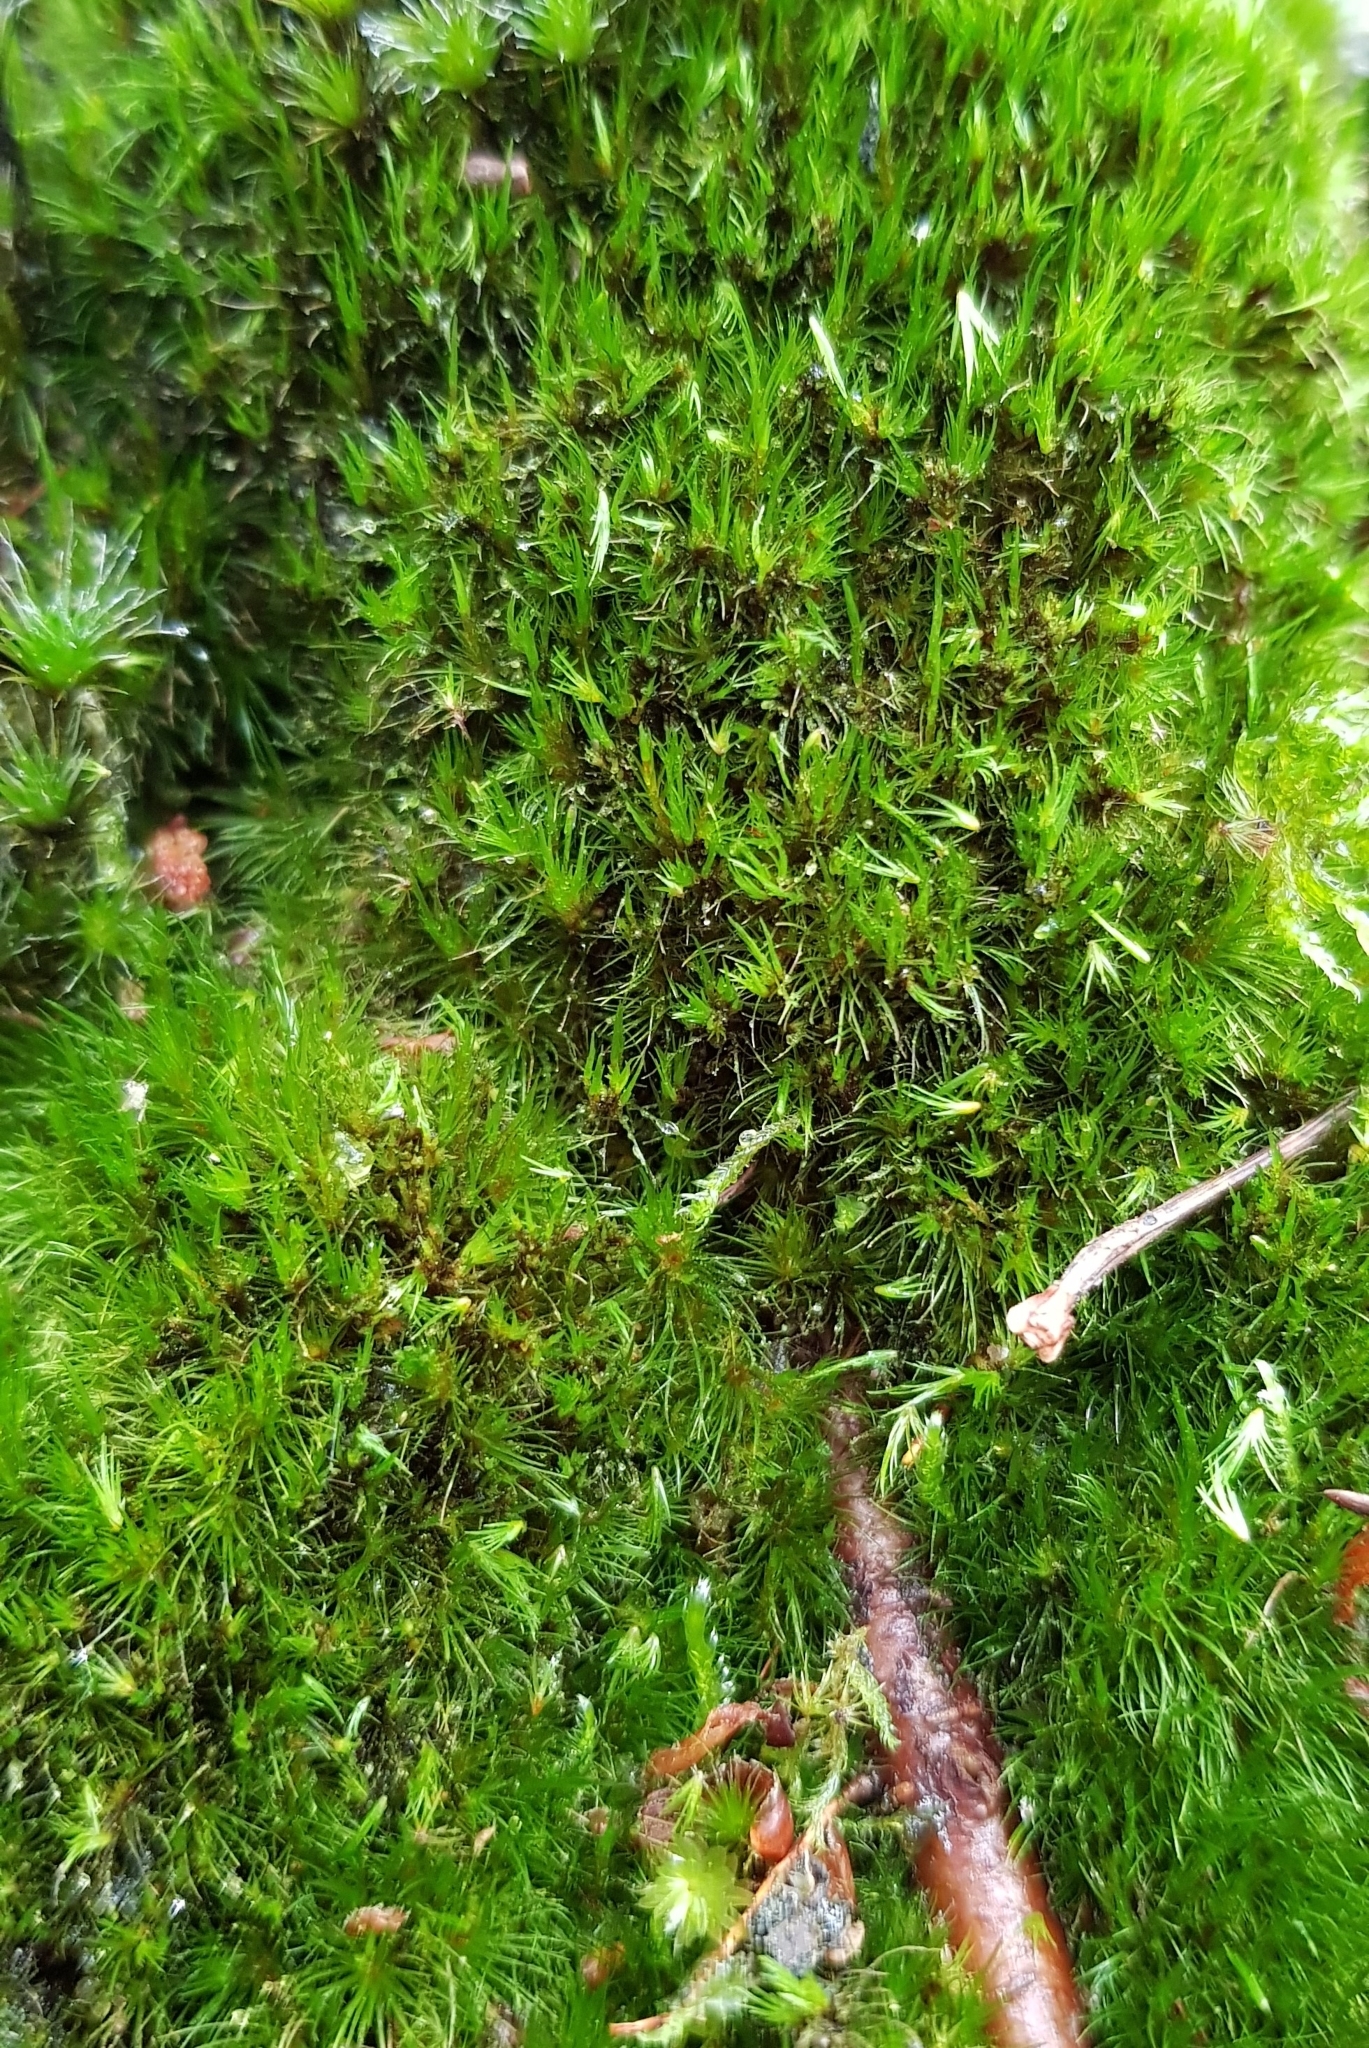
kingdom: Plantae
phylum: Bryophyta
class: Bryopsida
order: Dicranales
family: Leucobryaceae
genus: Campylopus
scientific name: Campylopus flexuosus
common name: Rusty swan-neck moss
